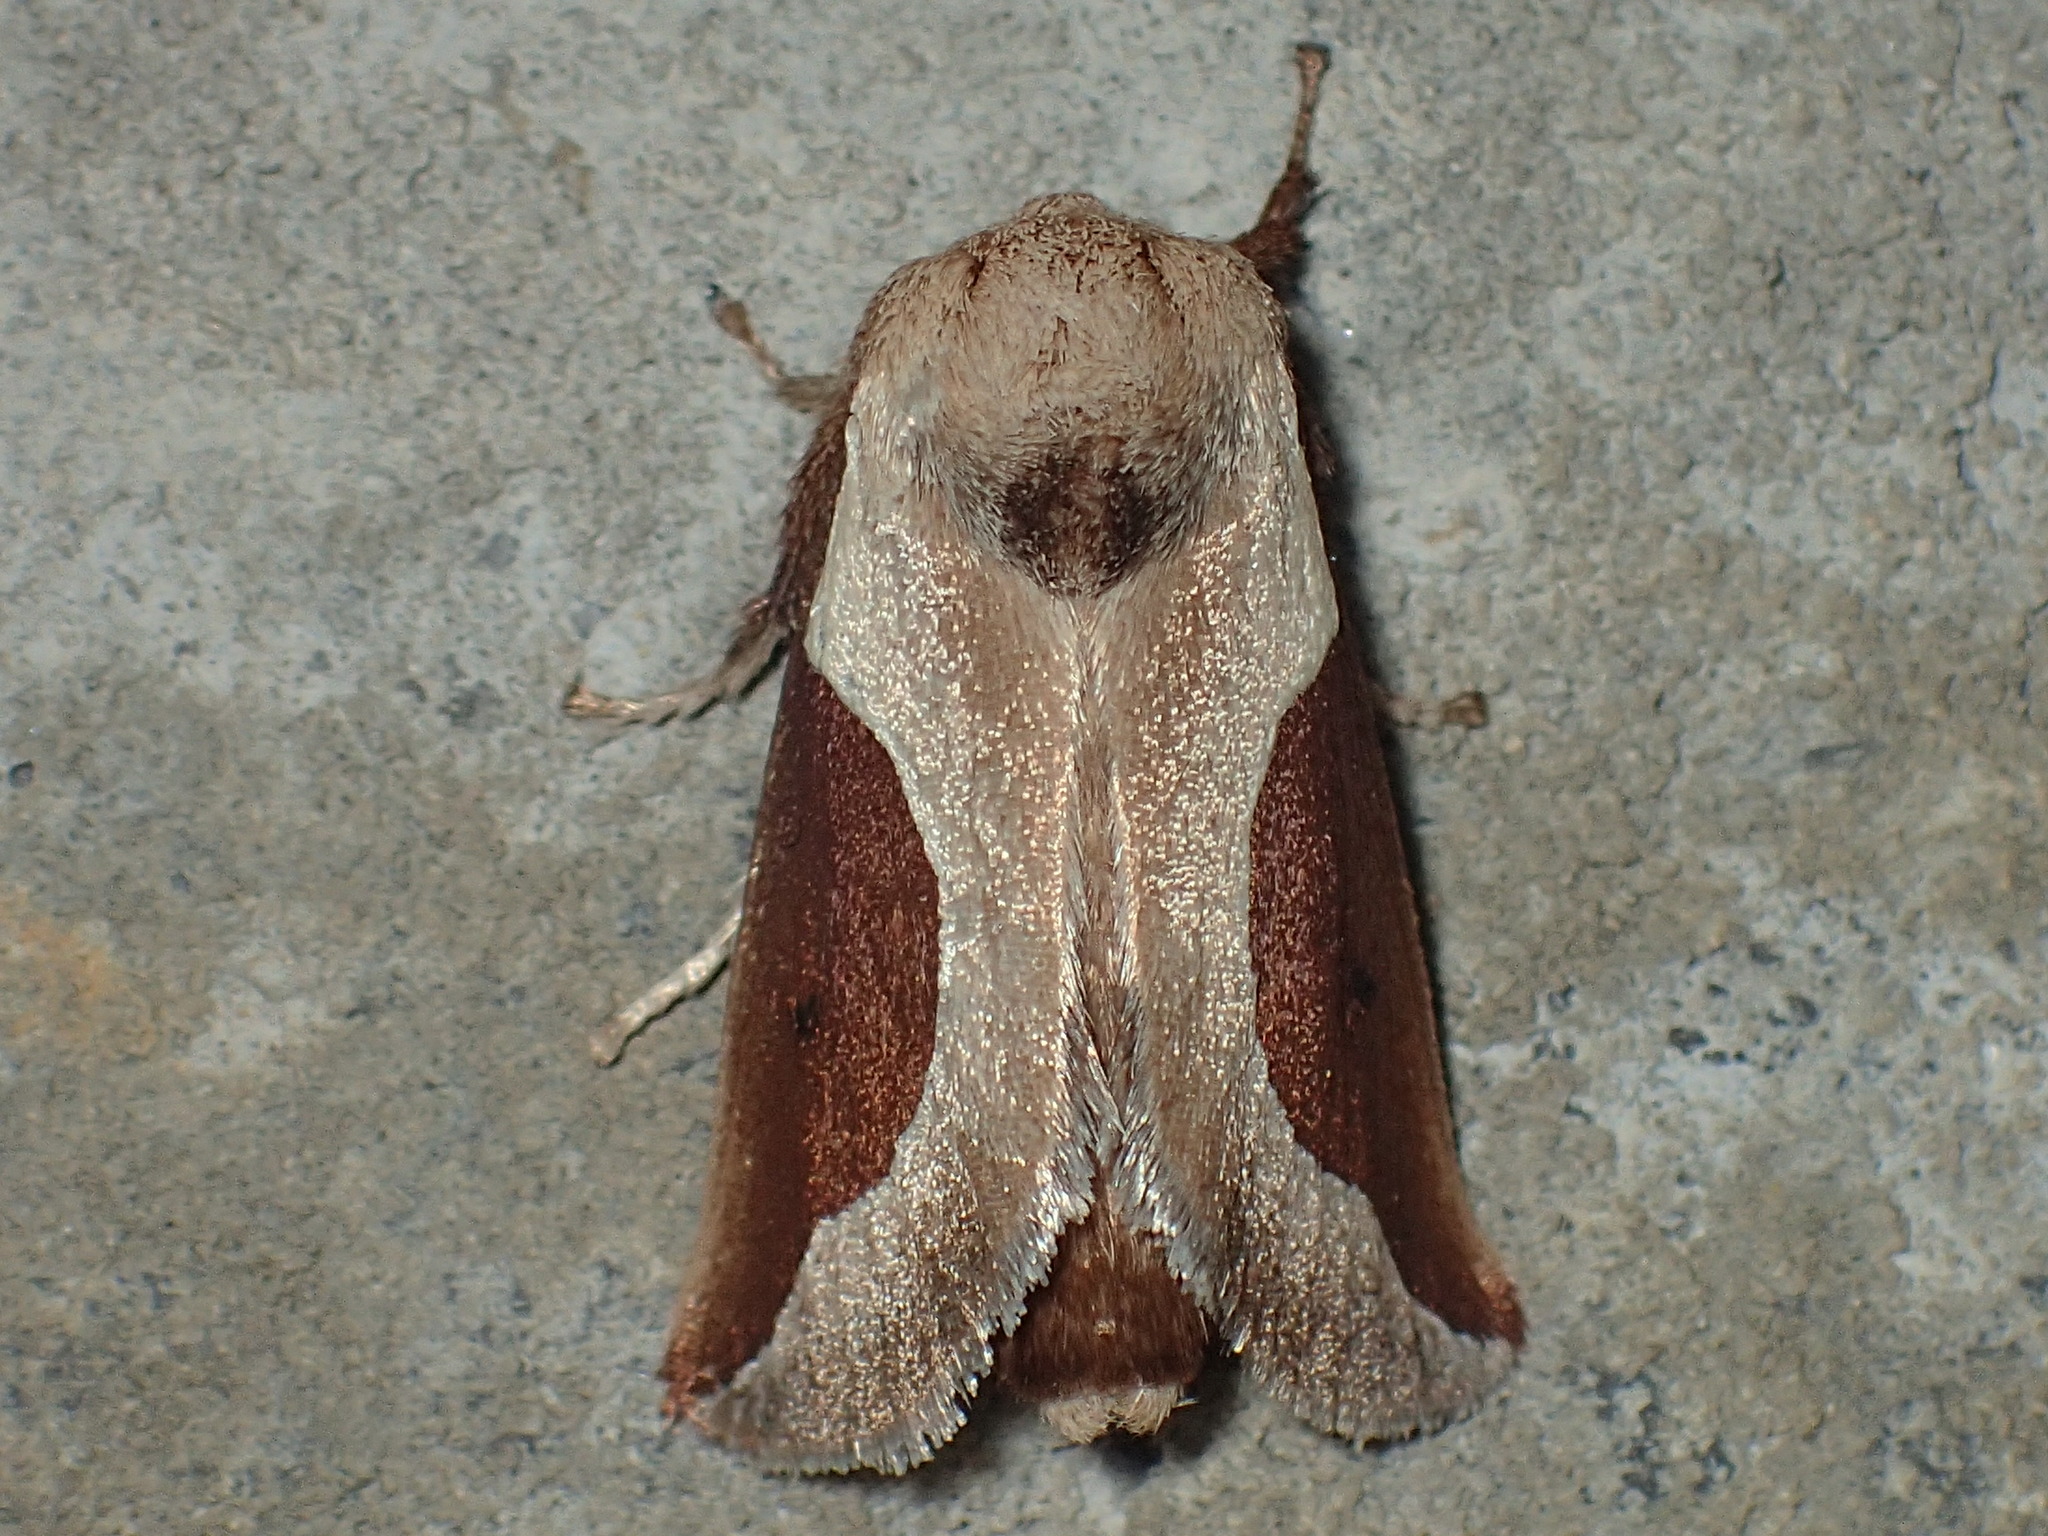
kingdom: Animalia
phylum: Arthropoda
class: Insecta
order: Lepidoptera
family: Limacodidae
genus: Prolimacodes
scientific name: Prolimacodes badia
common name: Skiff moth
